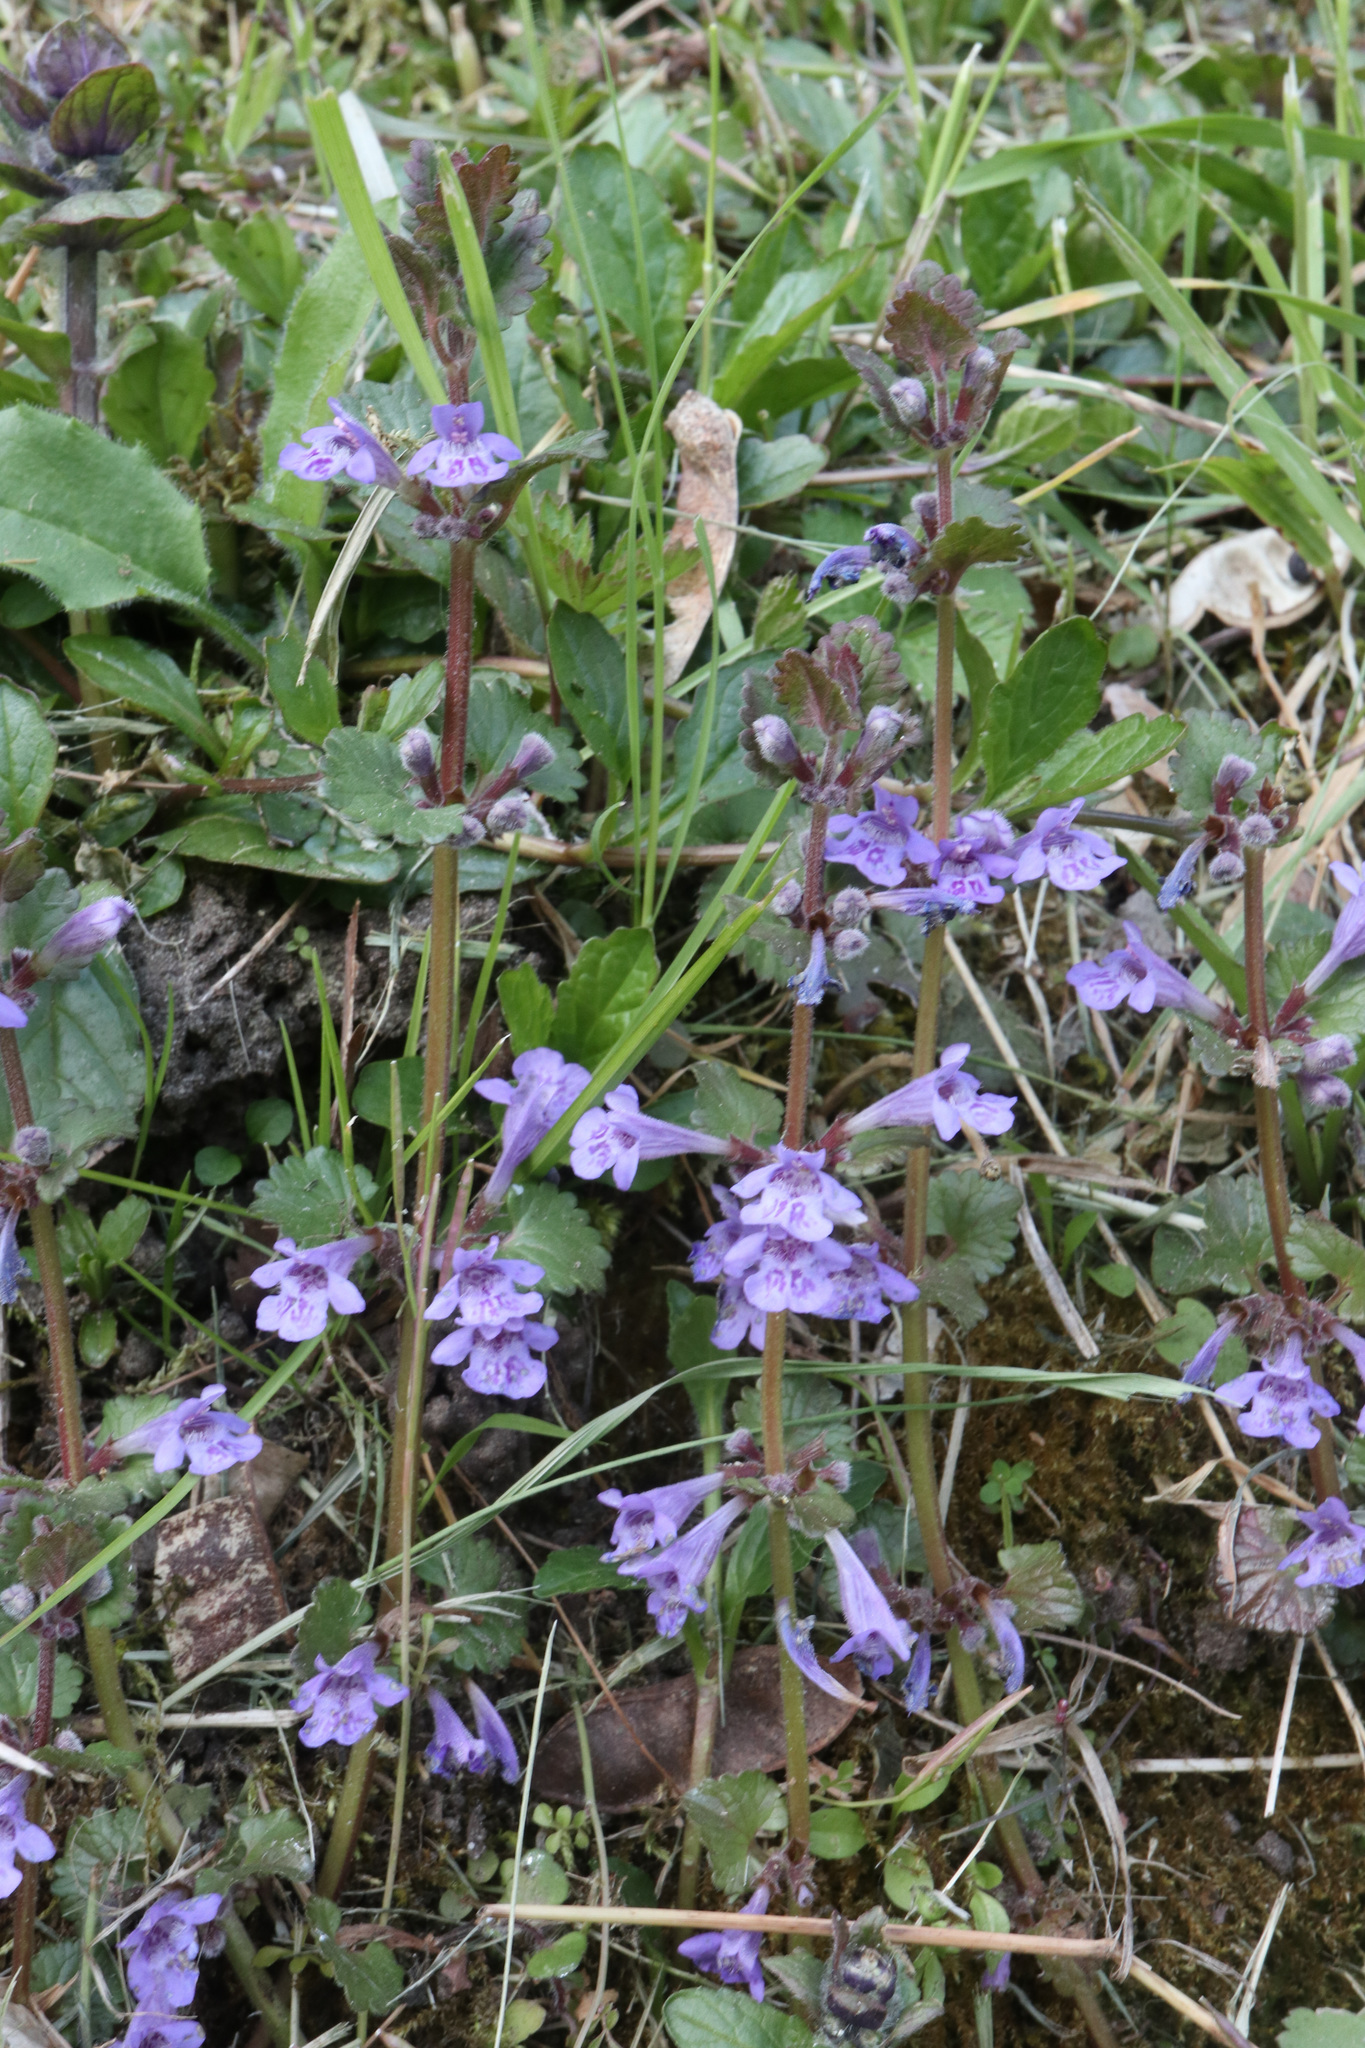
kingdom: Plantae
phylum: Tracheophyta
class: Magnoliopsida
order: Lamiales
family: Lamiaceae
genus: Glechoma
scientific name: Glechoma hederacea
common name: Ground ivy
